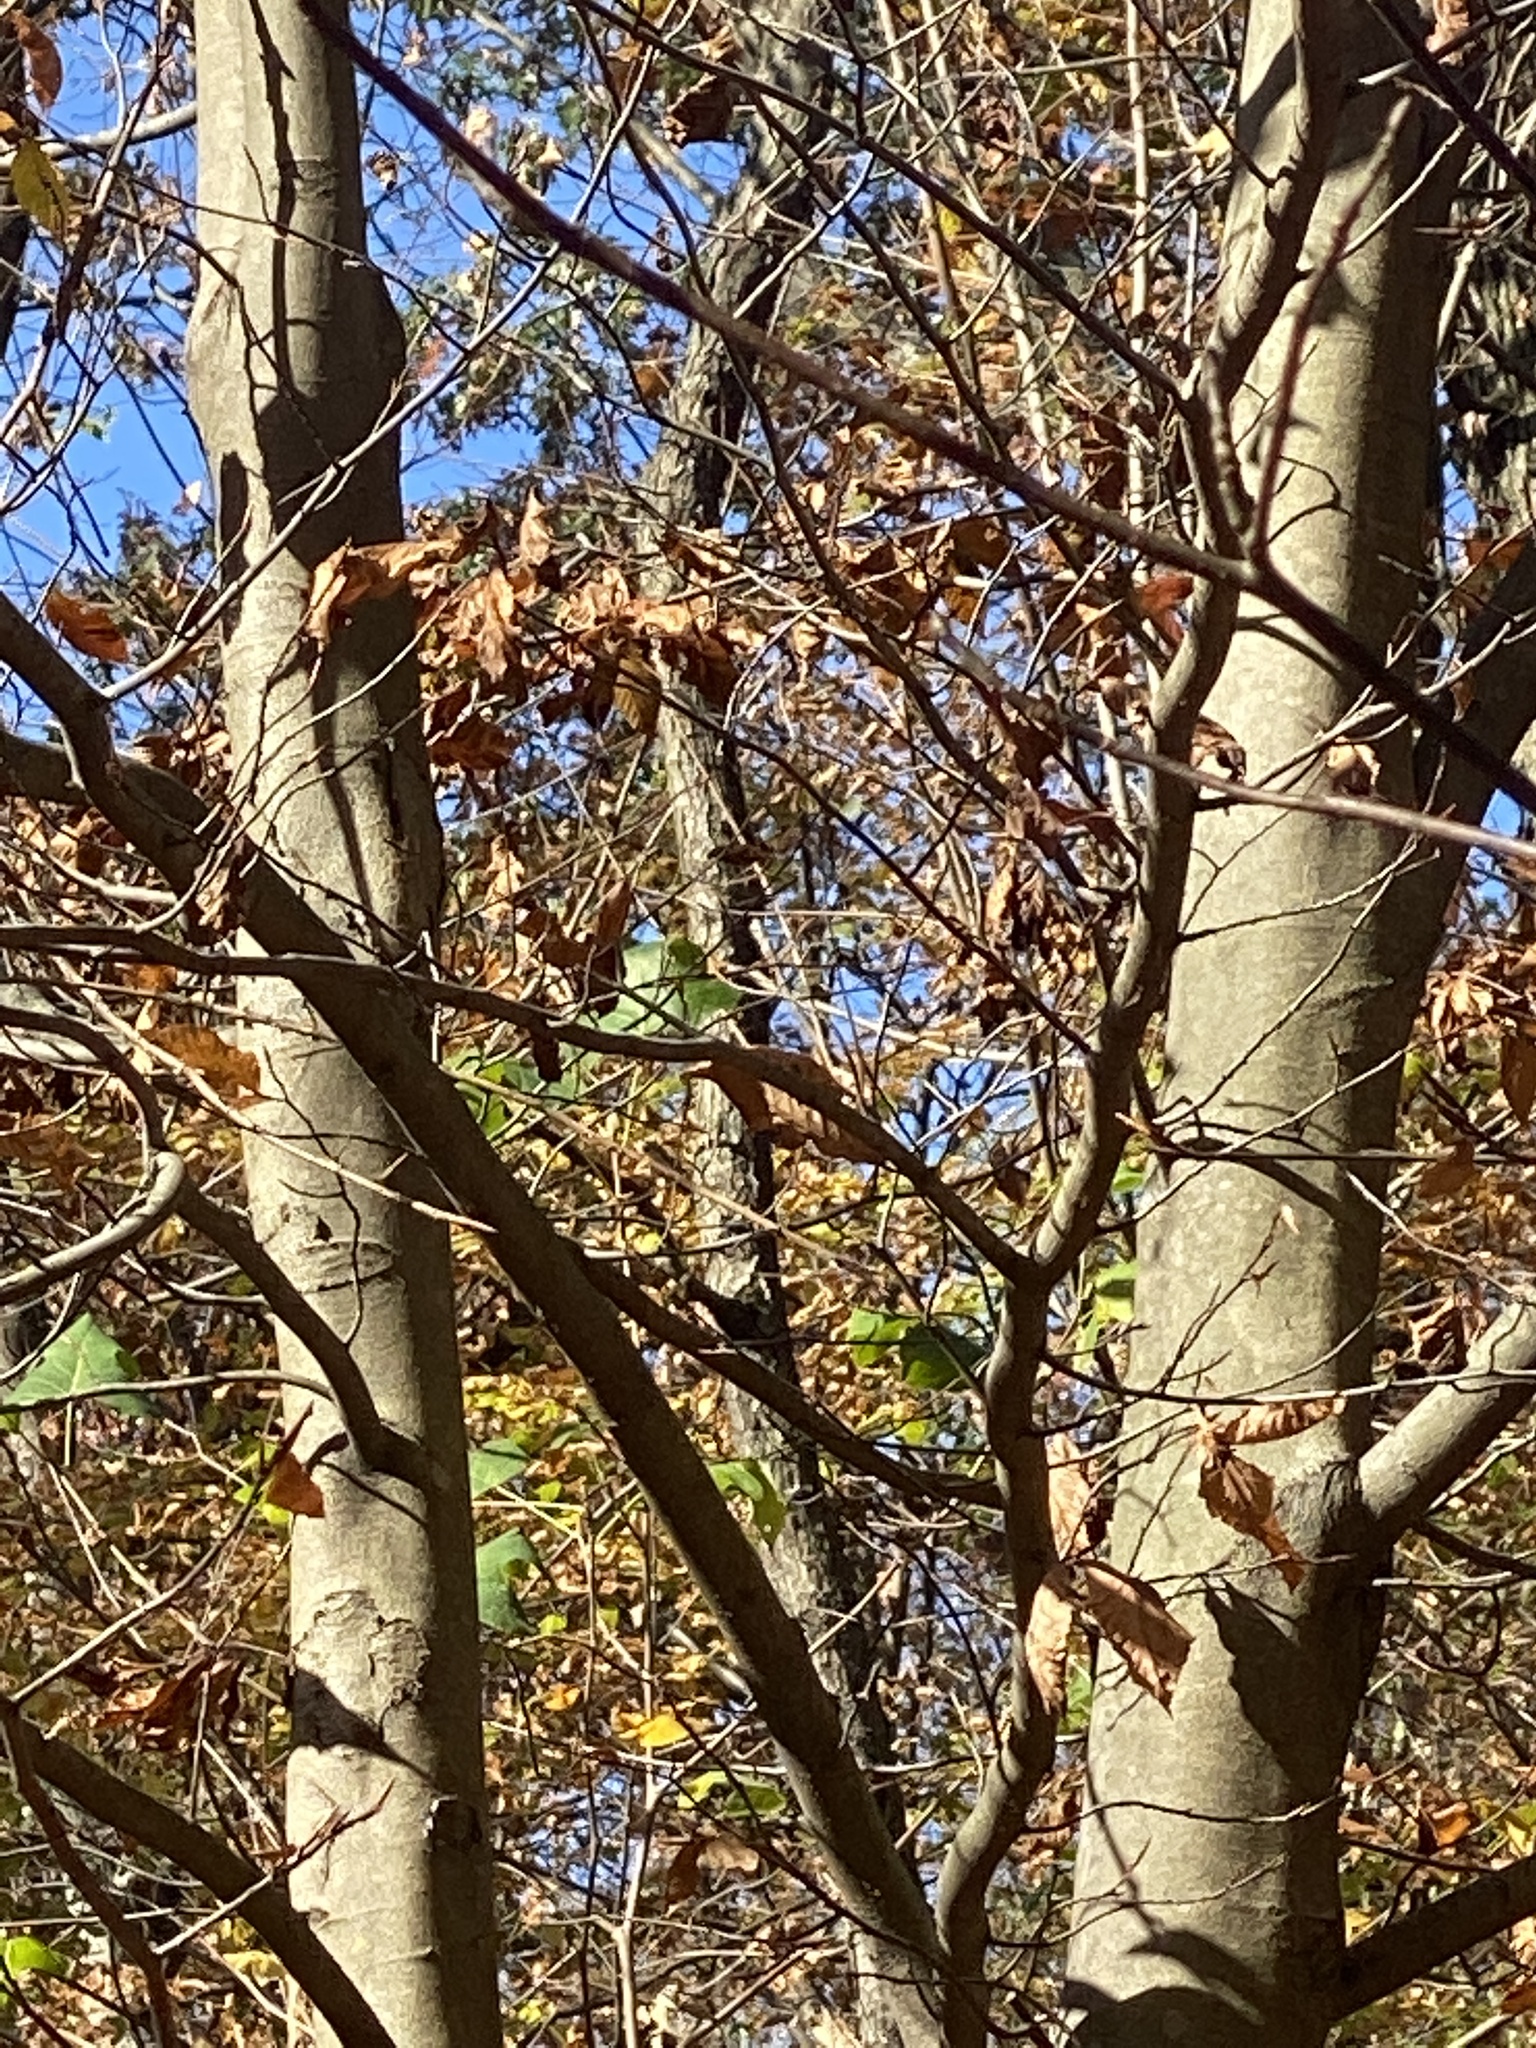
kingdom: Plantae
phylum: Tracheophyta
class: Magnoliopsida
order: Fagales
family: Fagaceae
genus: Fagus
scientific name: Fagus grandifolia
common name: American beech
